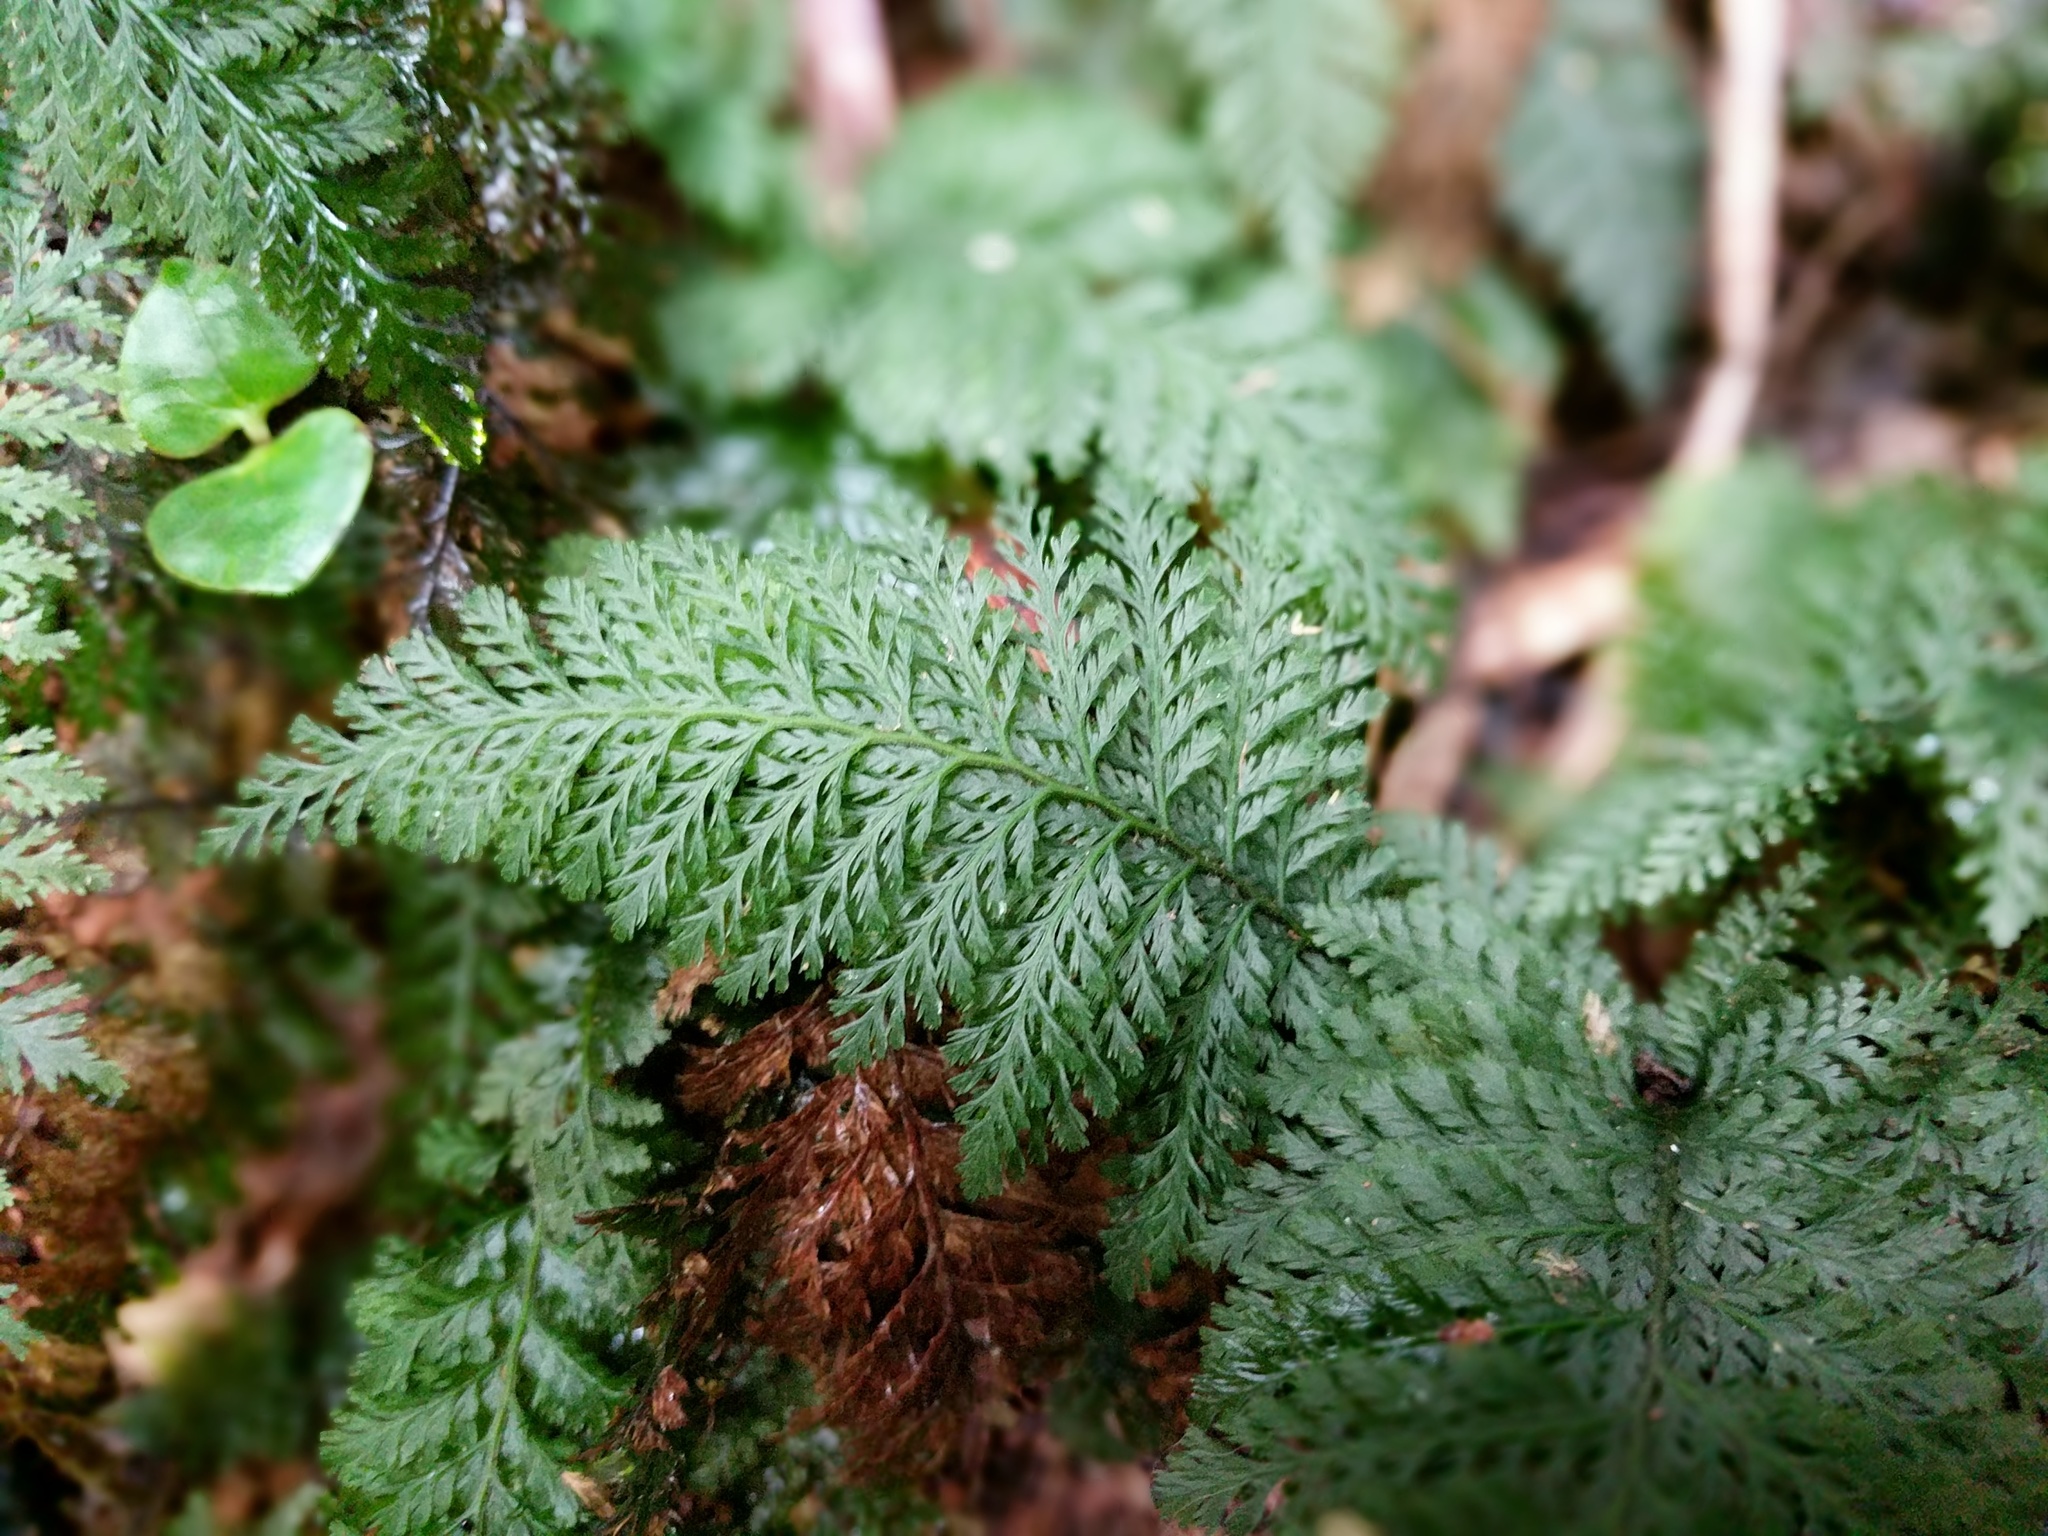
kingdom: Plantae
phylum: Tracheophyta
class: Polypodiopsida
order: Hymenophyllales
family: Hymenophyllaceae
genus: Trichomanes
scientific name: Trichomanes cupressoides
